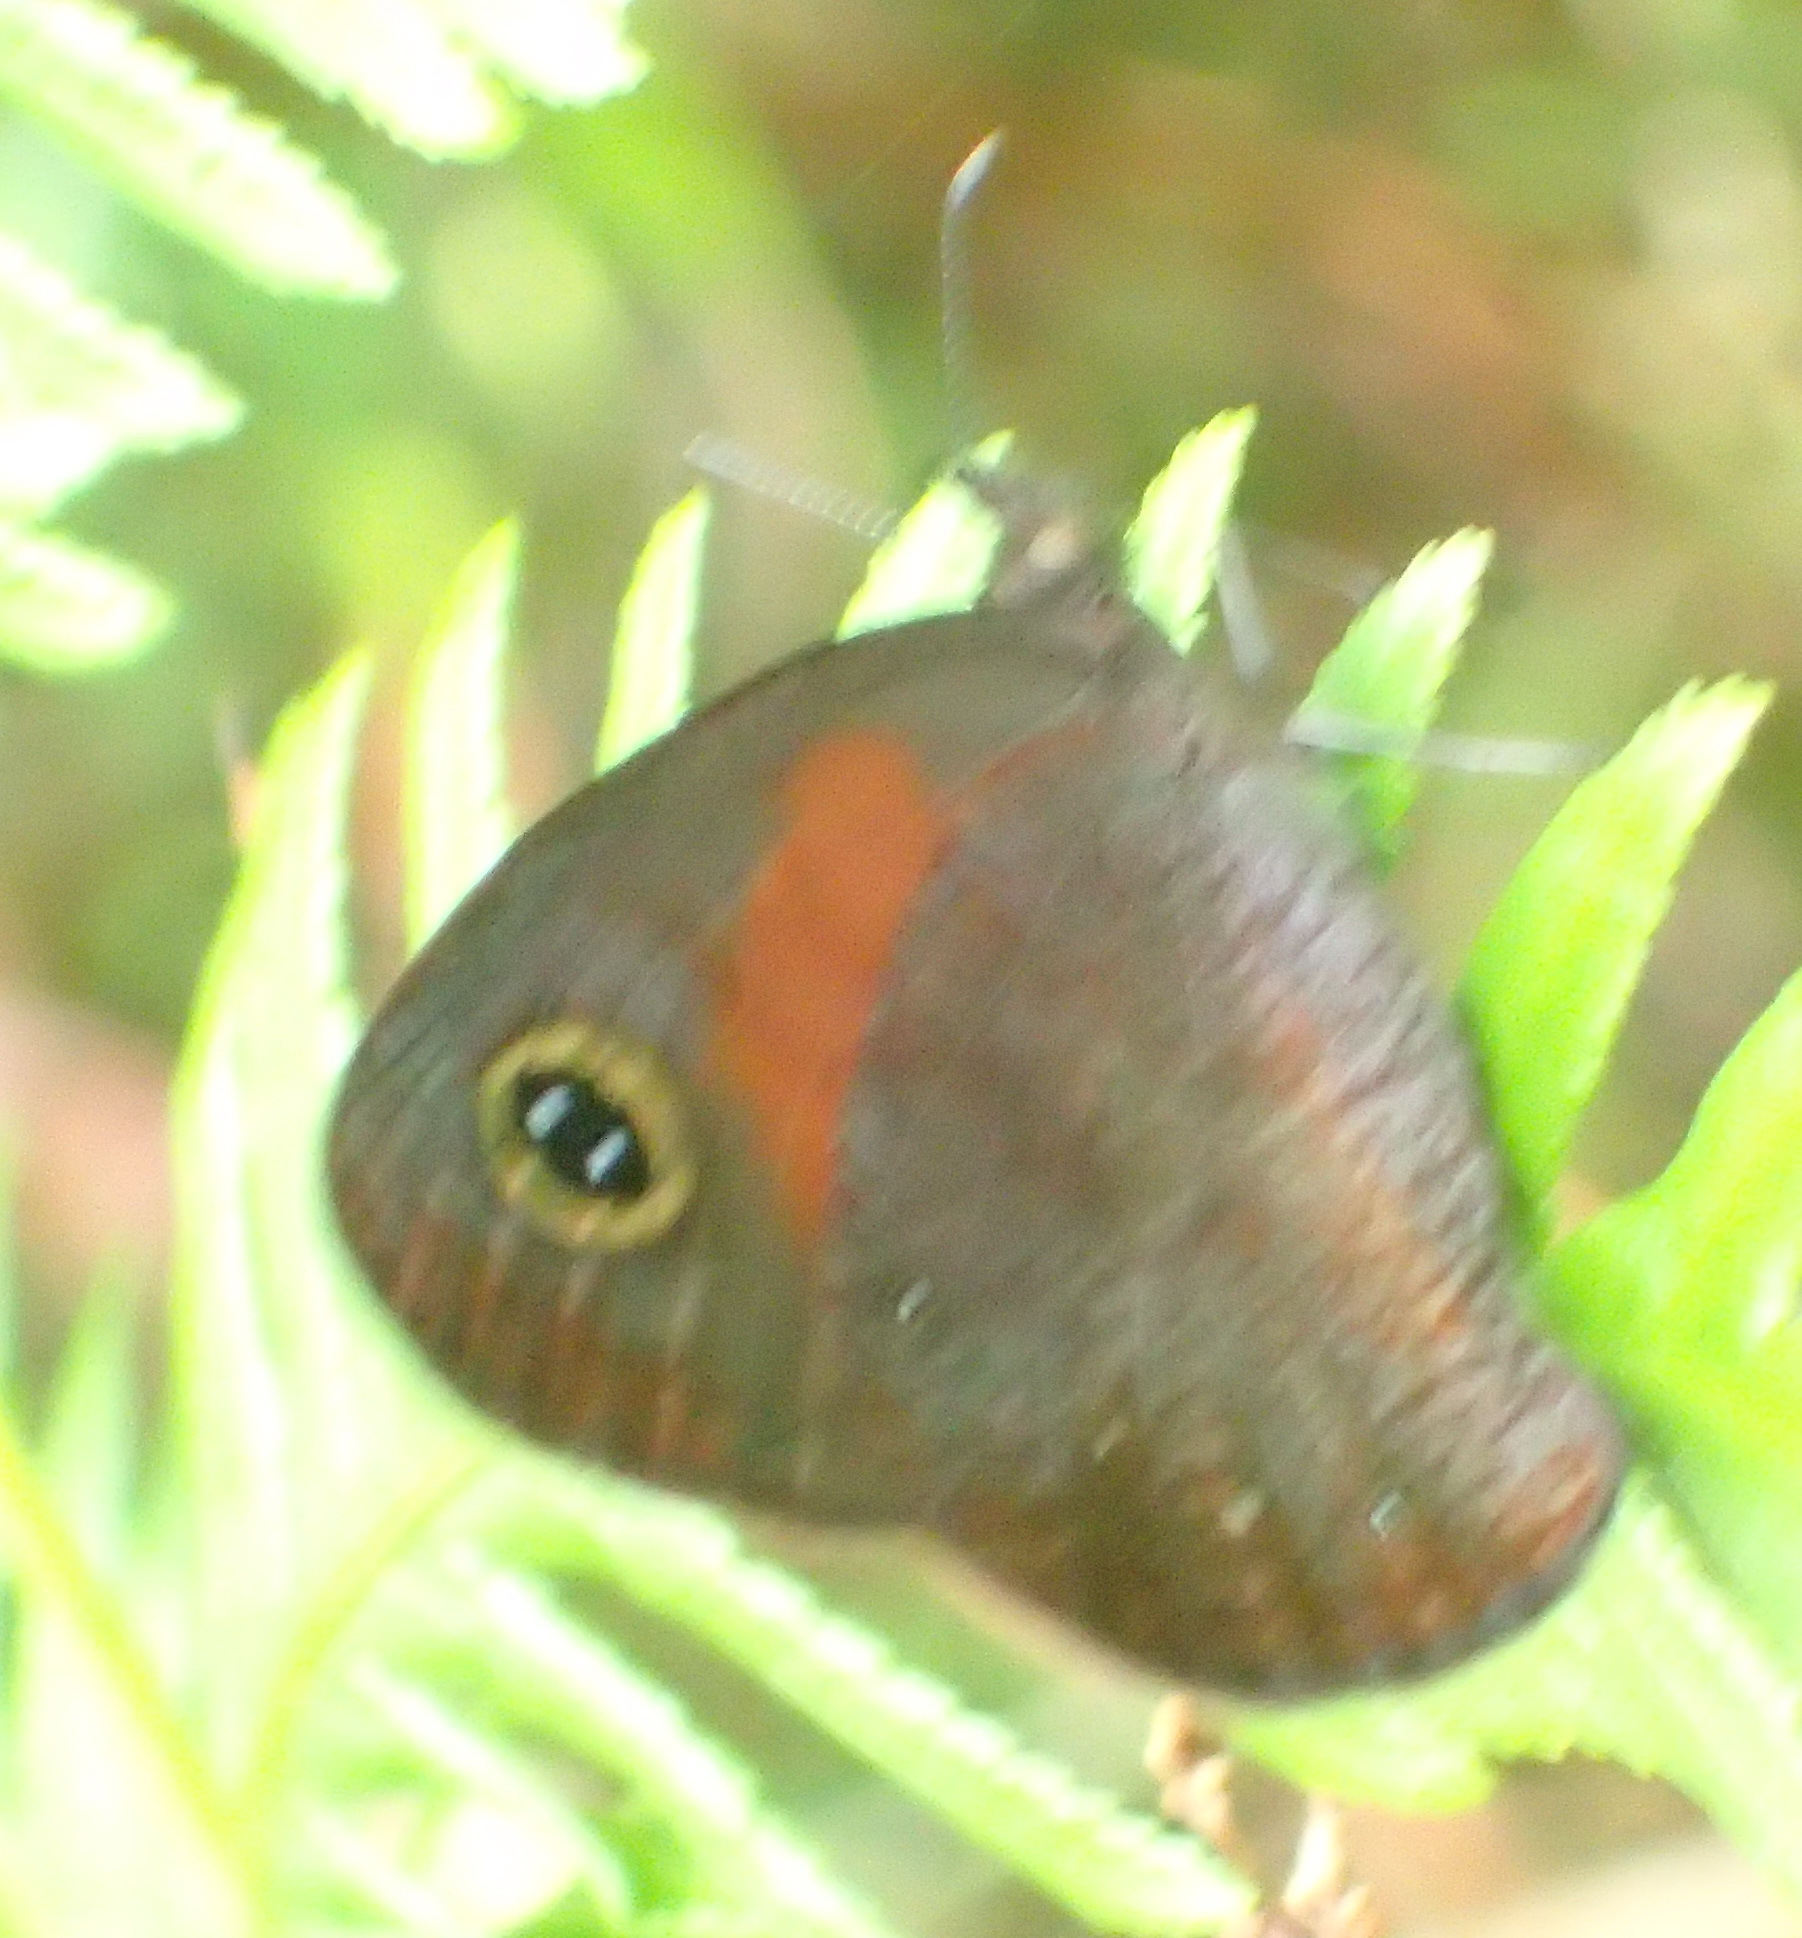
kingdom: Animalia
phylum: Arthropoda
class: Insecta
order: Lepidoptera
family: Nymphalidae
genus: Cassionympha
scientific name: Cassionympha cassius
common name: Rainforest brown
